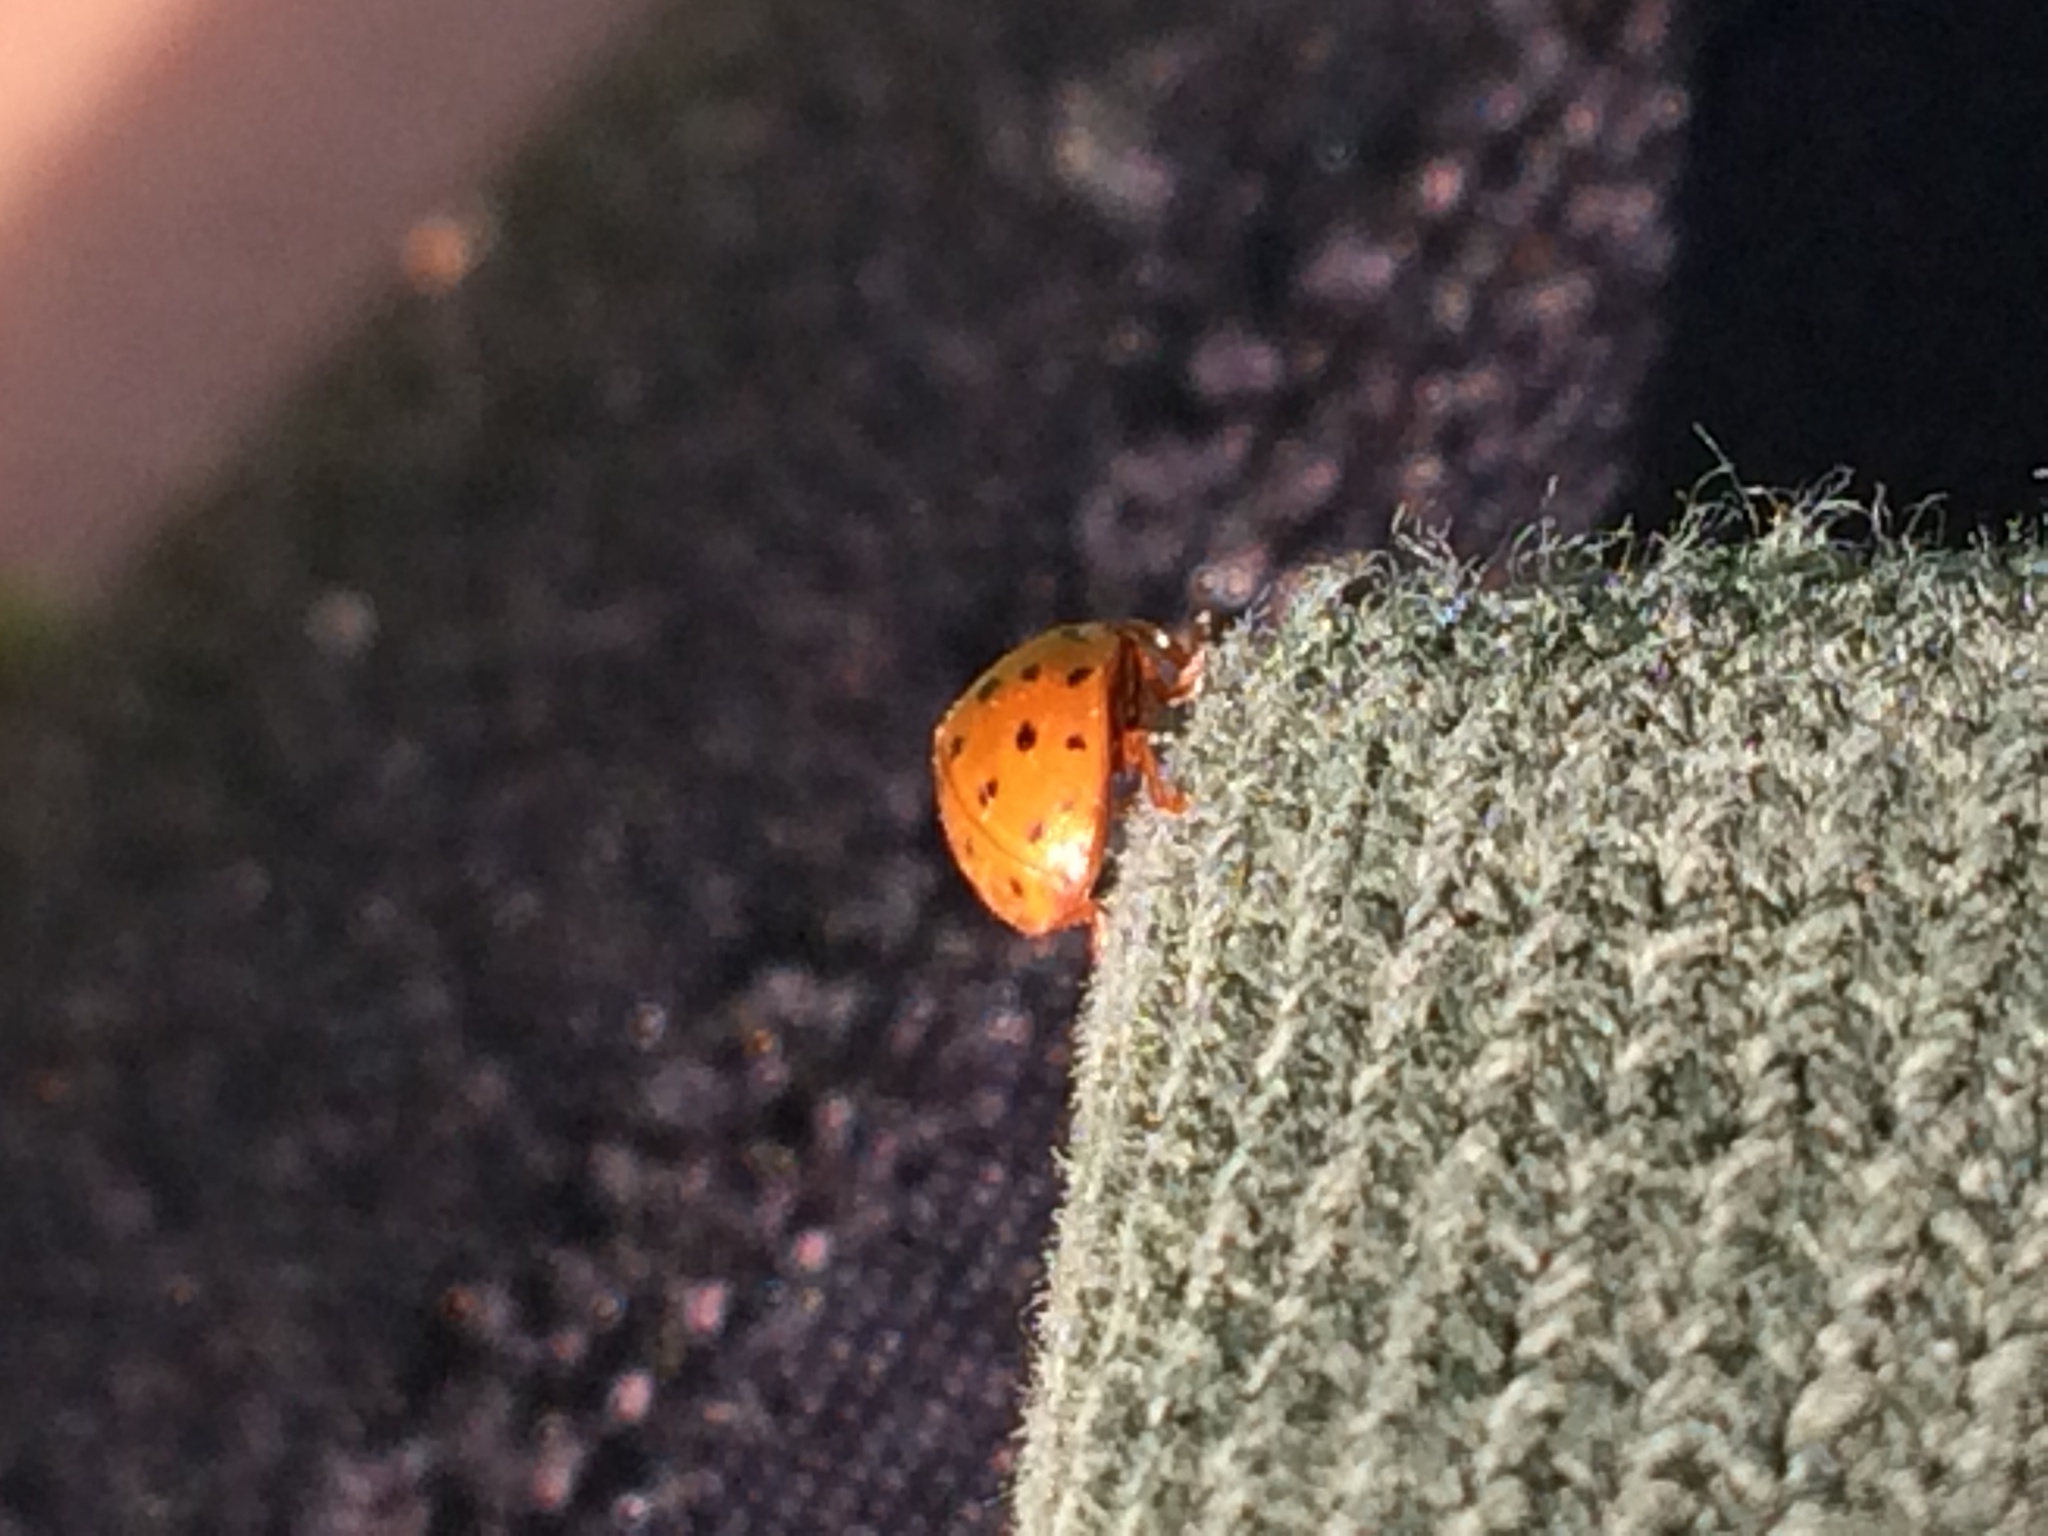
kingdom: Animalia
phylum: Arthropoda
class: Insecta
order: Coleoptera
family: Coccinellidae
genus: Subcoccinella
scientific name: Subcoccinella vigintiquatuorpunctata
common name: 24-spot ladybird
